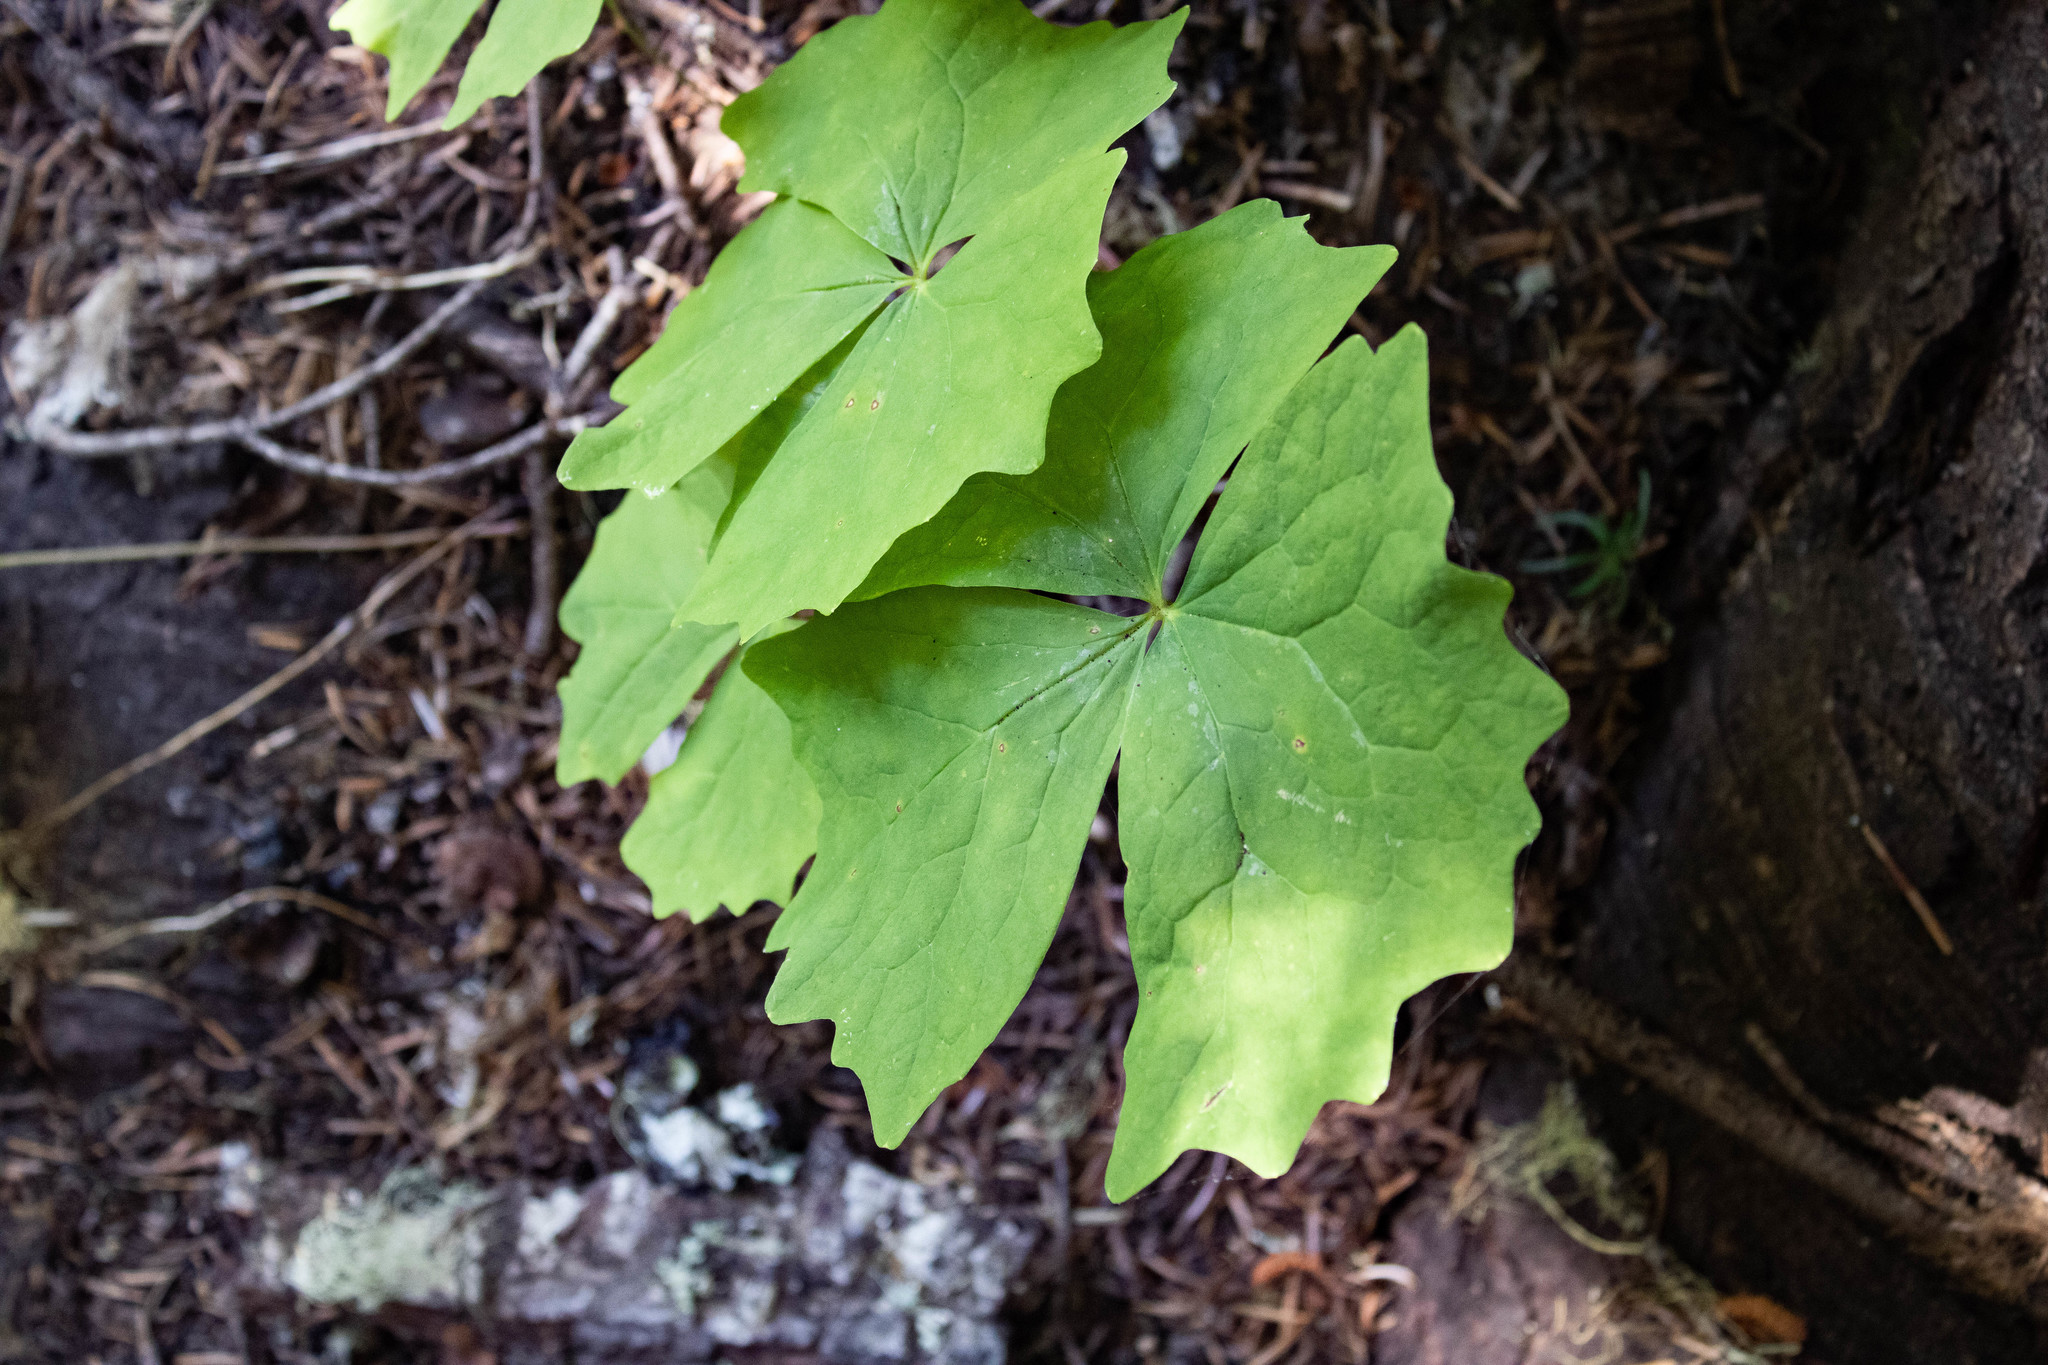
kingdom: Plantae
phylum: Tracheophyta
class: Magnoliopsida
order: Ranunculales
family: Berberidaceae
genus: Achlys
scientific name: Achlys triphylla
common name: Vanilla-leaf
